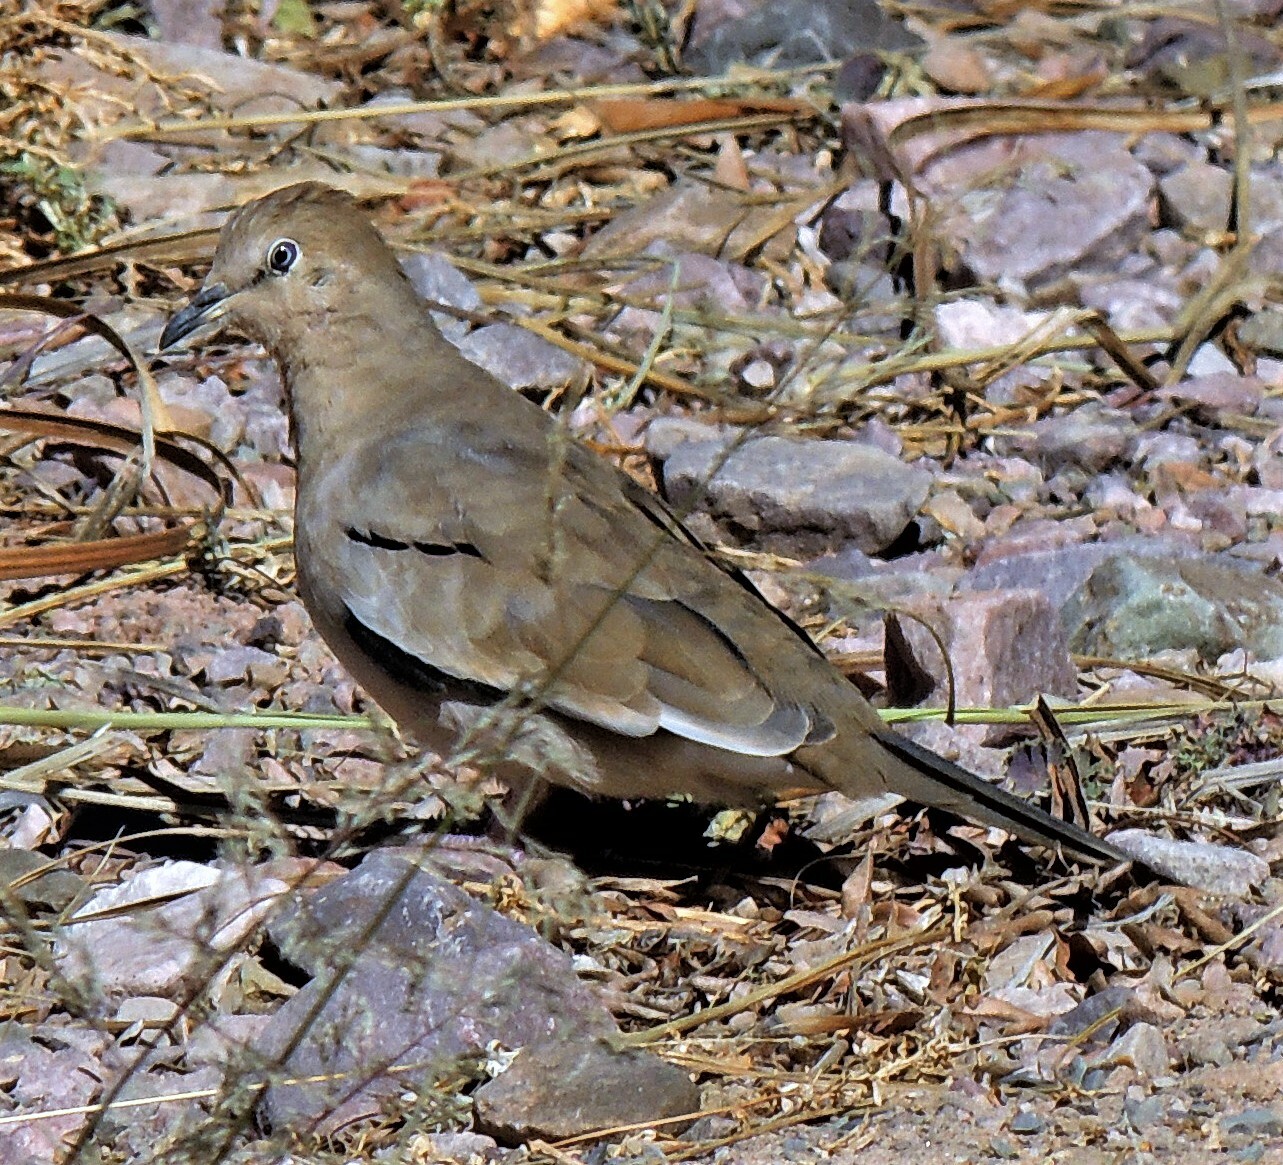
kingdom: Animalia
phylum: Chordata
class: Aves
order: Columbiformes
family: Columbidae
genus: Columbina
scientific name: Columbina picui
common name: Picui ground dove
